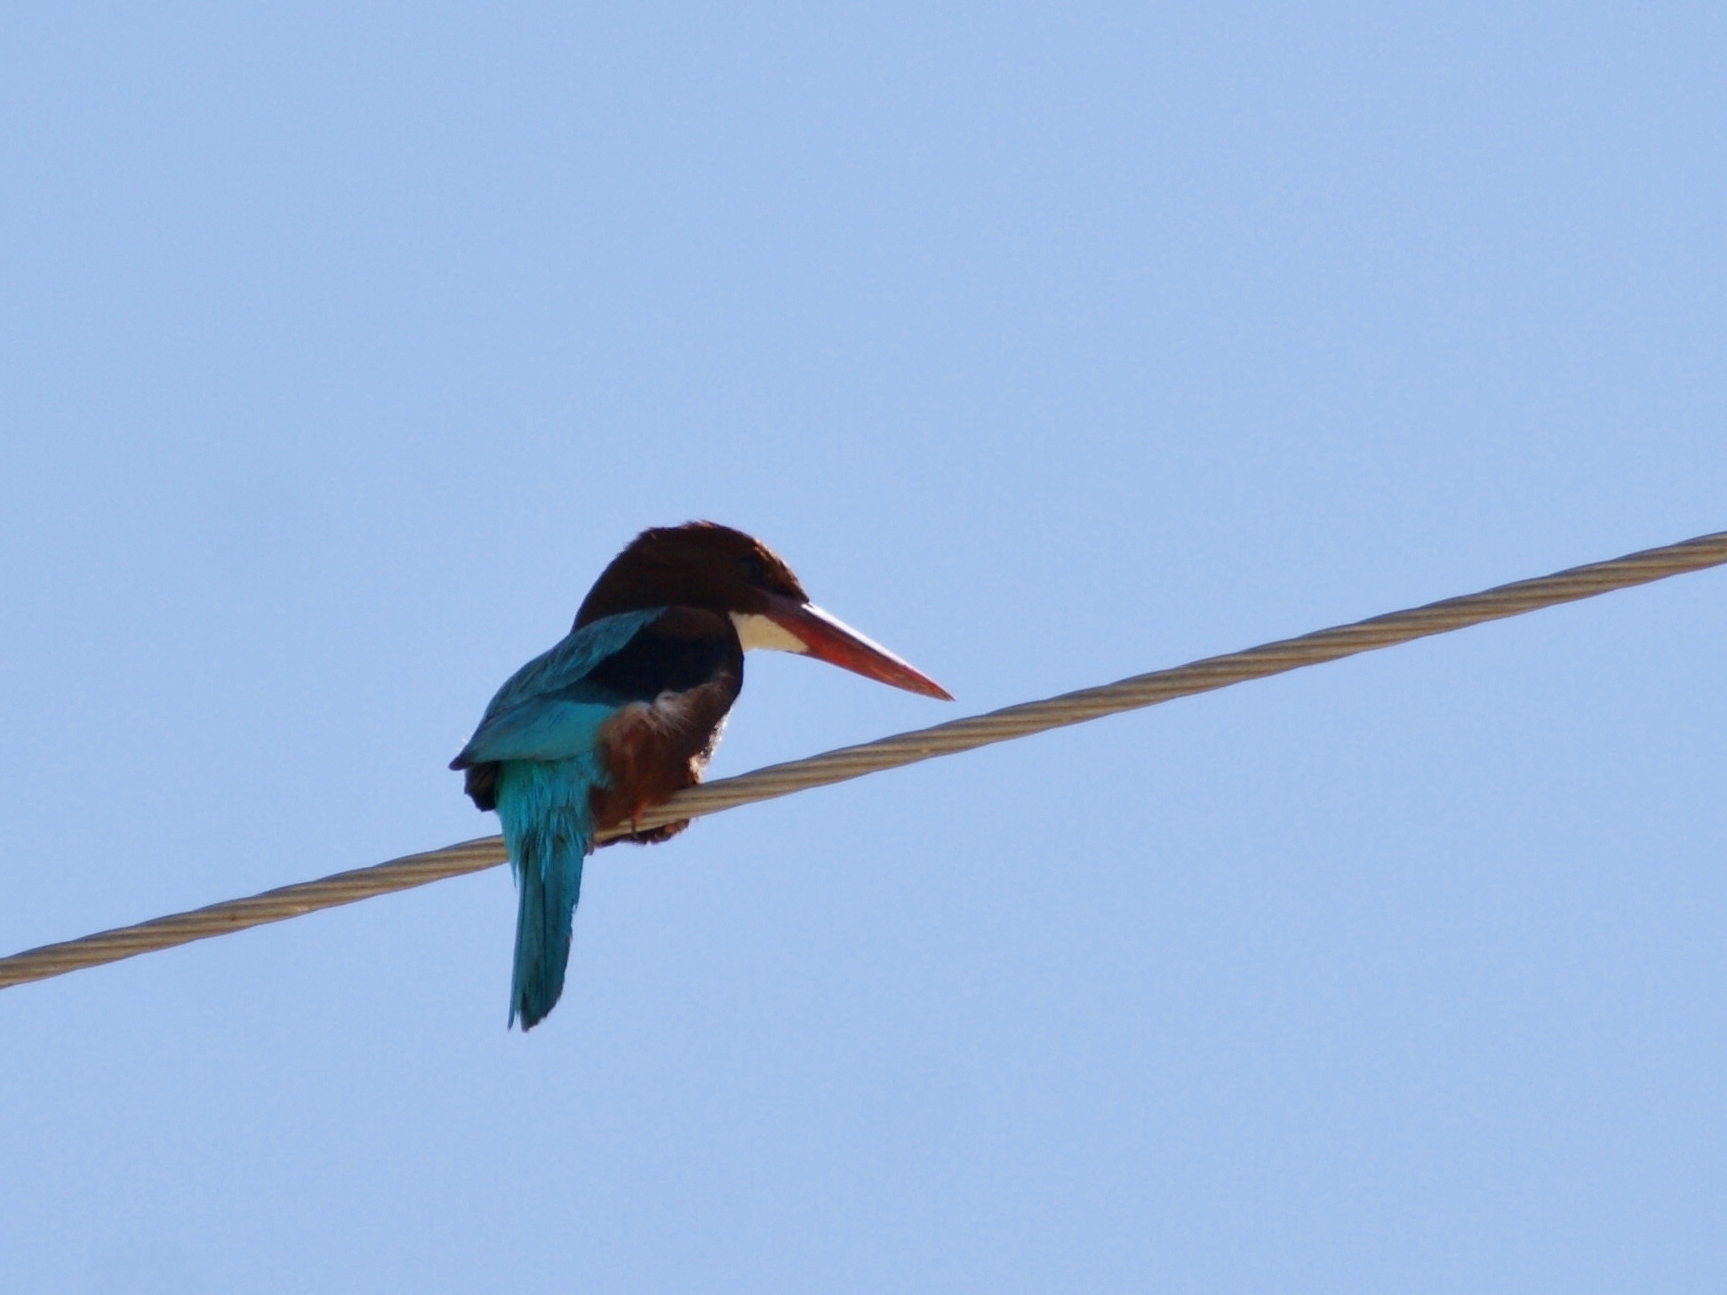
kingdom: Animalia
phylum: Chordata
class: Aves
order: Coraciiformes
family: Alcedinidae
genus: Halcyon
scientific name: Halcyon smyrnensis
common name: White-throated kingfisher
